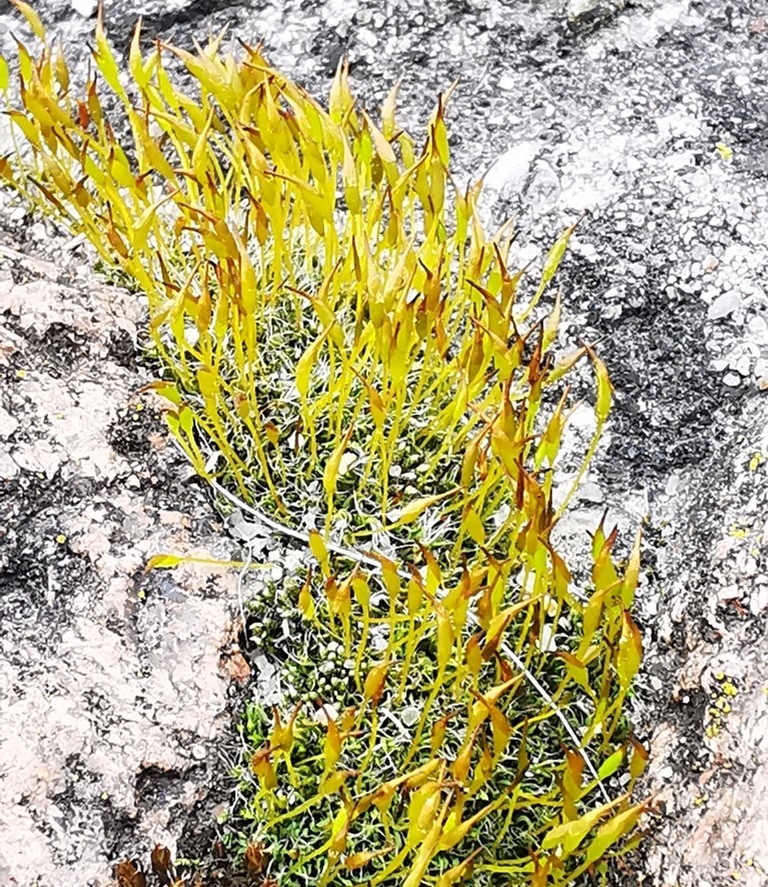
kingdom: Plantae
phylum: Bryophyta
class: Bryopsida
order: Pottiales
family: Pottiaceae
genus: Tortula
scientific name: Tortula muralis
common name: Wall screw-moss
